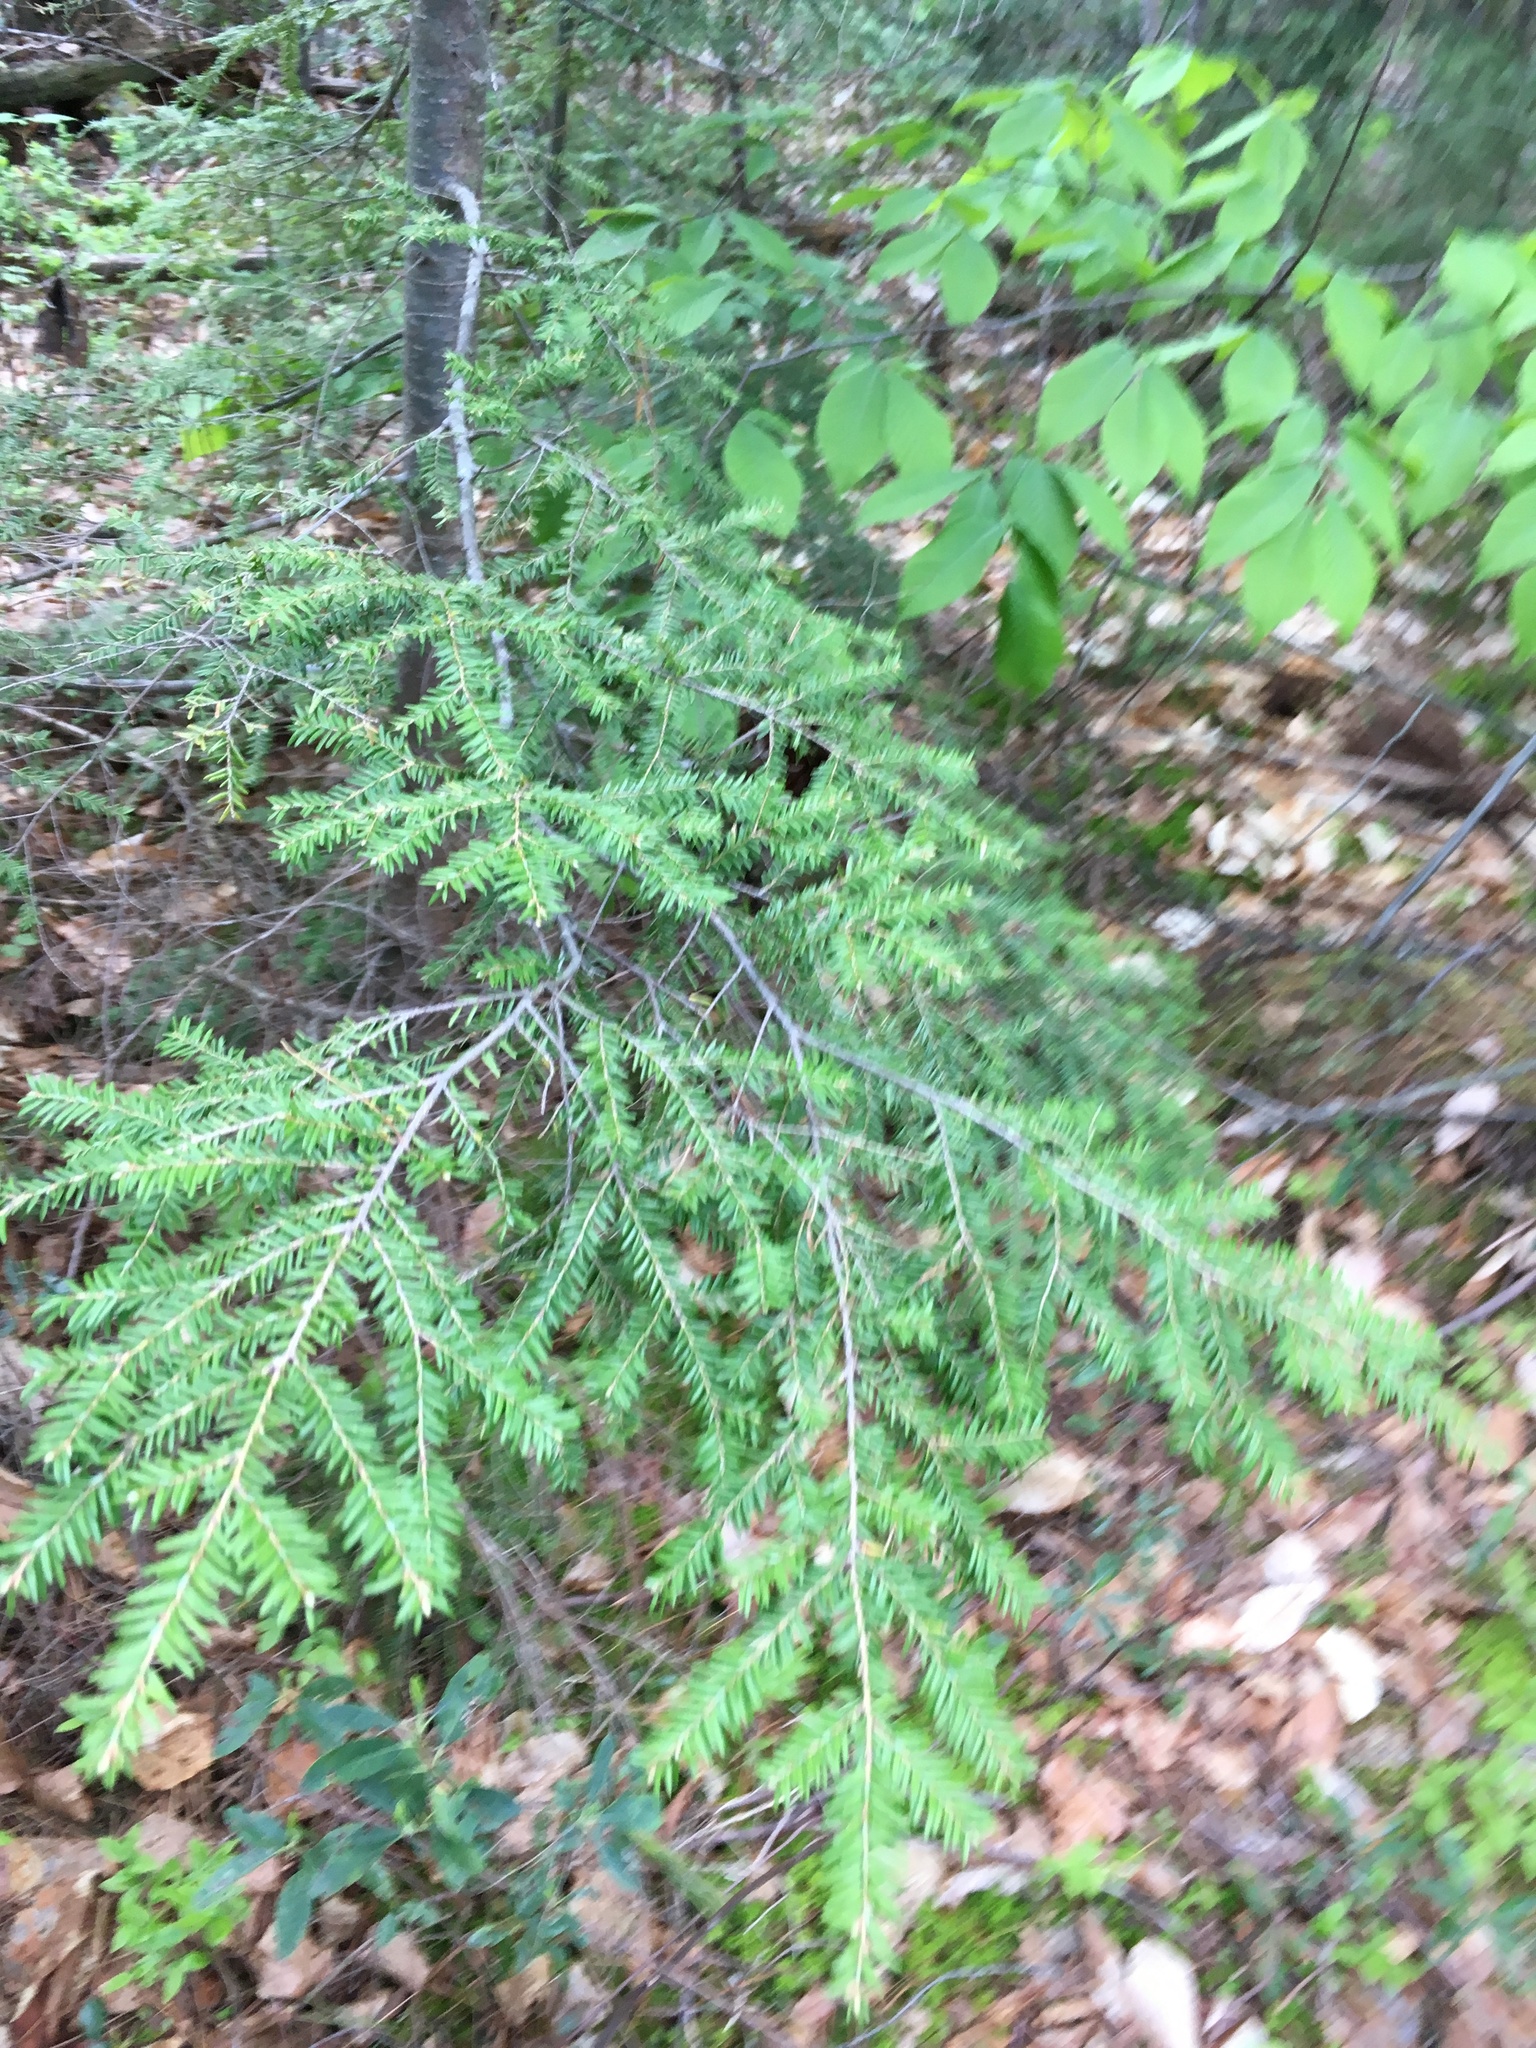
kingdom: Plantae
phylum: Tracheophyta
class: Pinopsida
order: Pinales
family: Pinaceae
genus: Tsuga
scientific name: Tsuga canadensis
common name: Eastern hemlock
